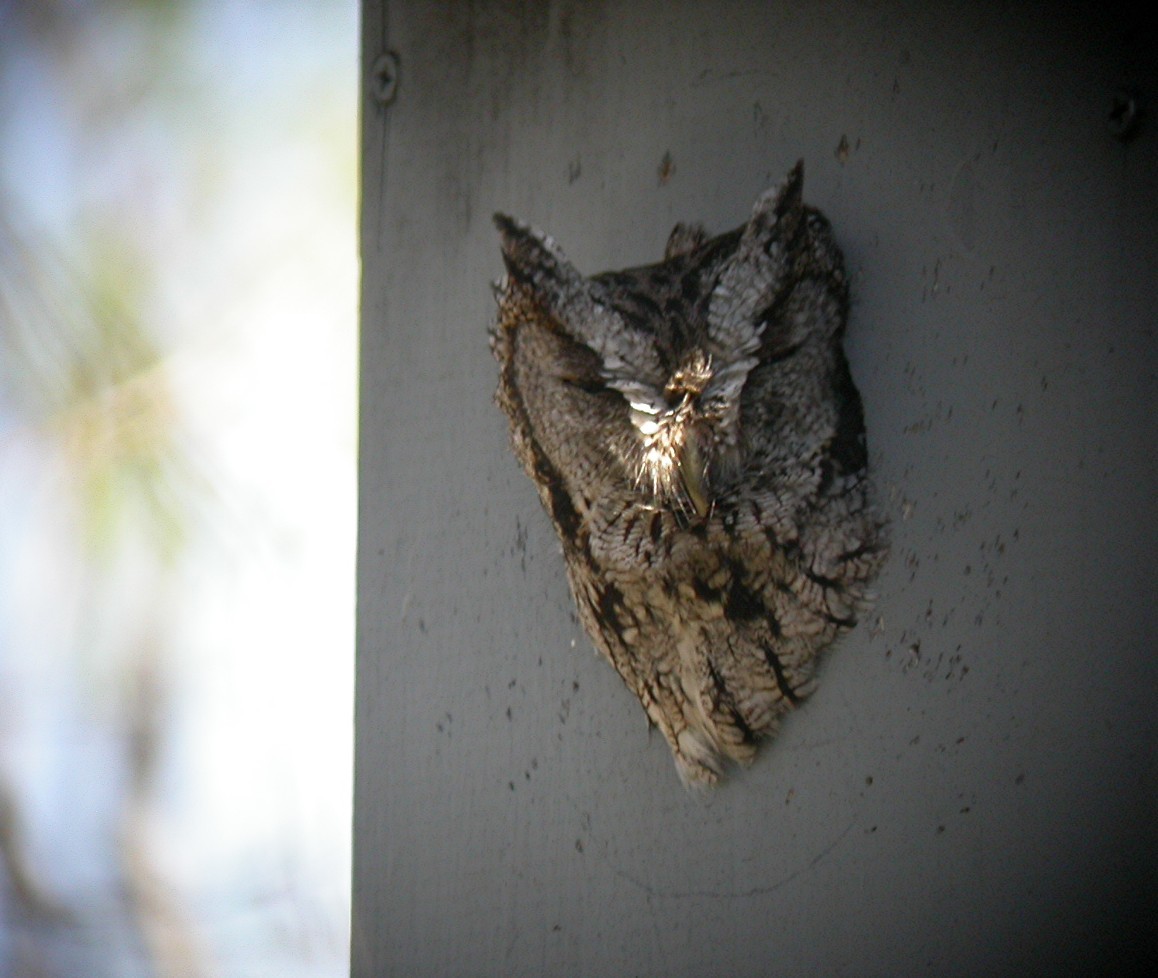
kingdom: Animalia
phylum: Chordata
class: Aves
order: Strigiformes
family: Strigidae
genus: Megascops
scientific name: Megascops asio
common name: Eastern screech-owl
